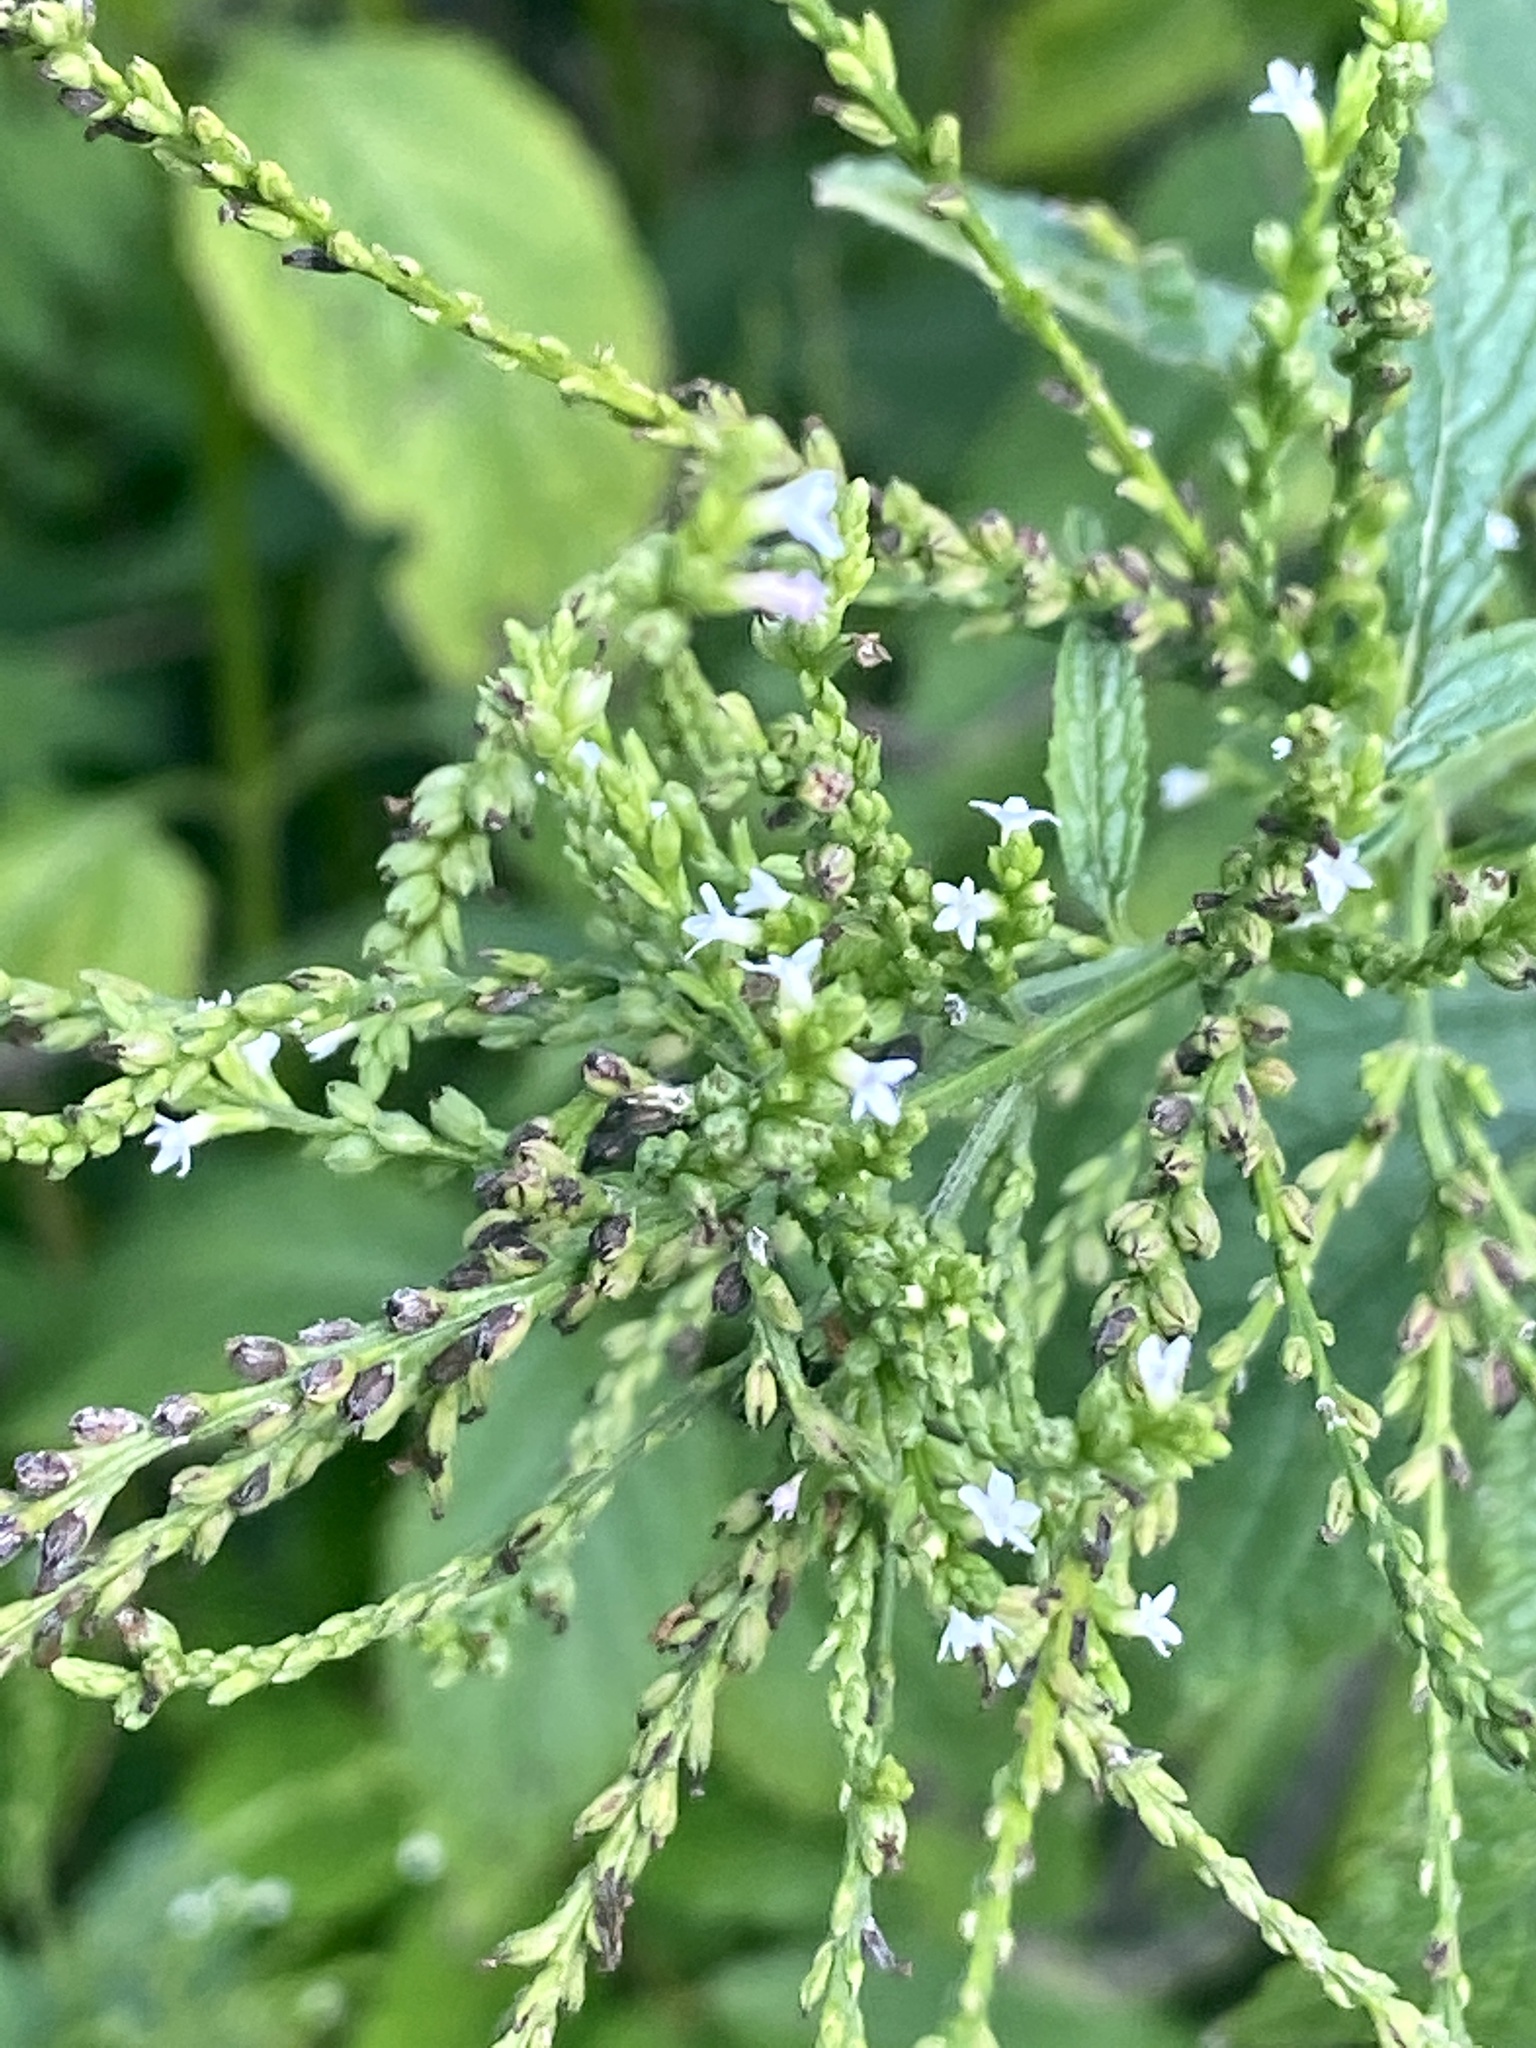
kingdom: Plantae
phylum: Tracheophyta
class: Magnoliopsida
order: Lamiales
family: Verbenaceae
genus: Verbena
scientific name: Verbena urticifolia
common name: Nettle-leaved vervain
